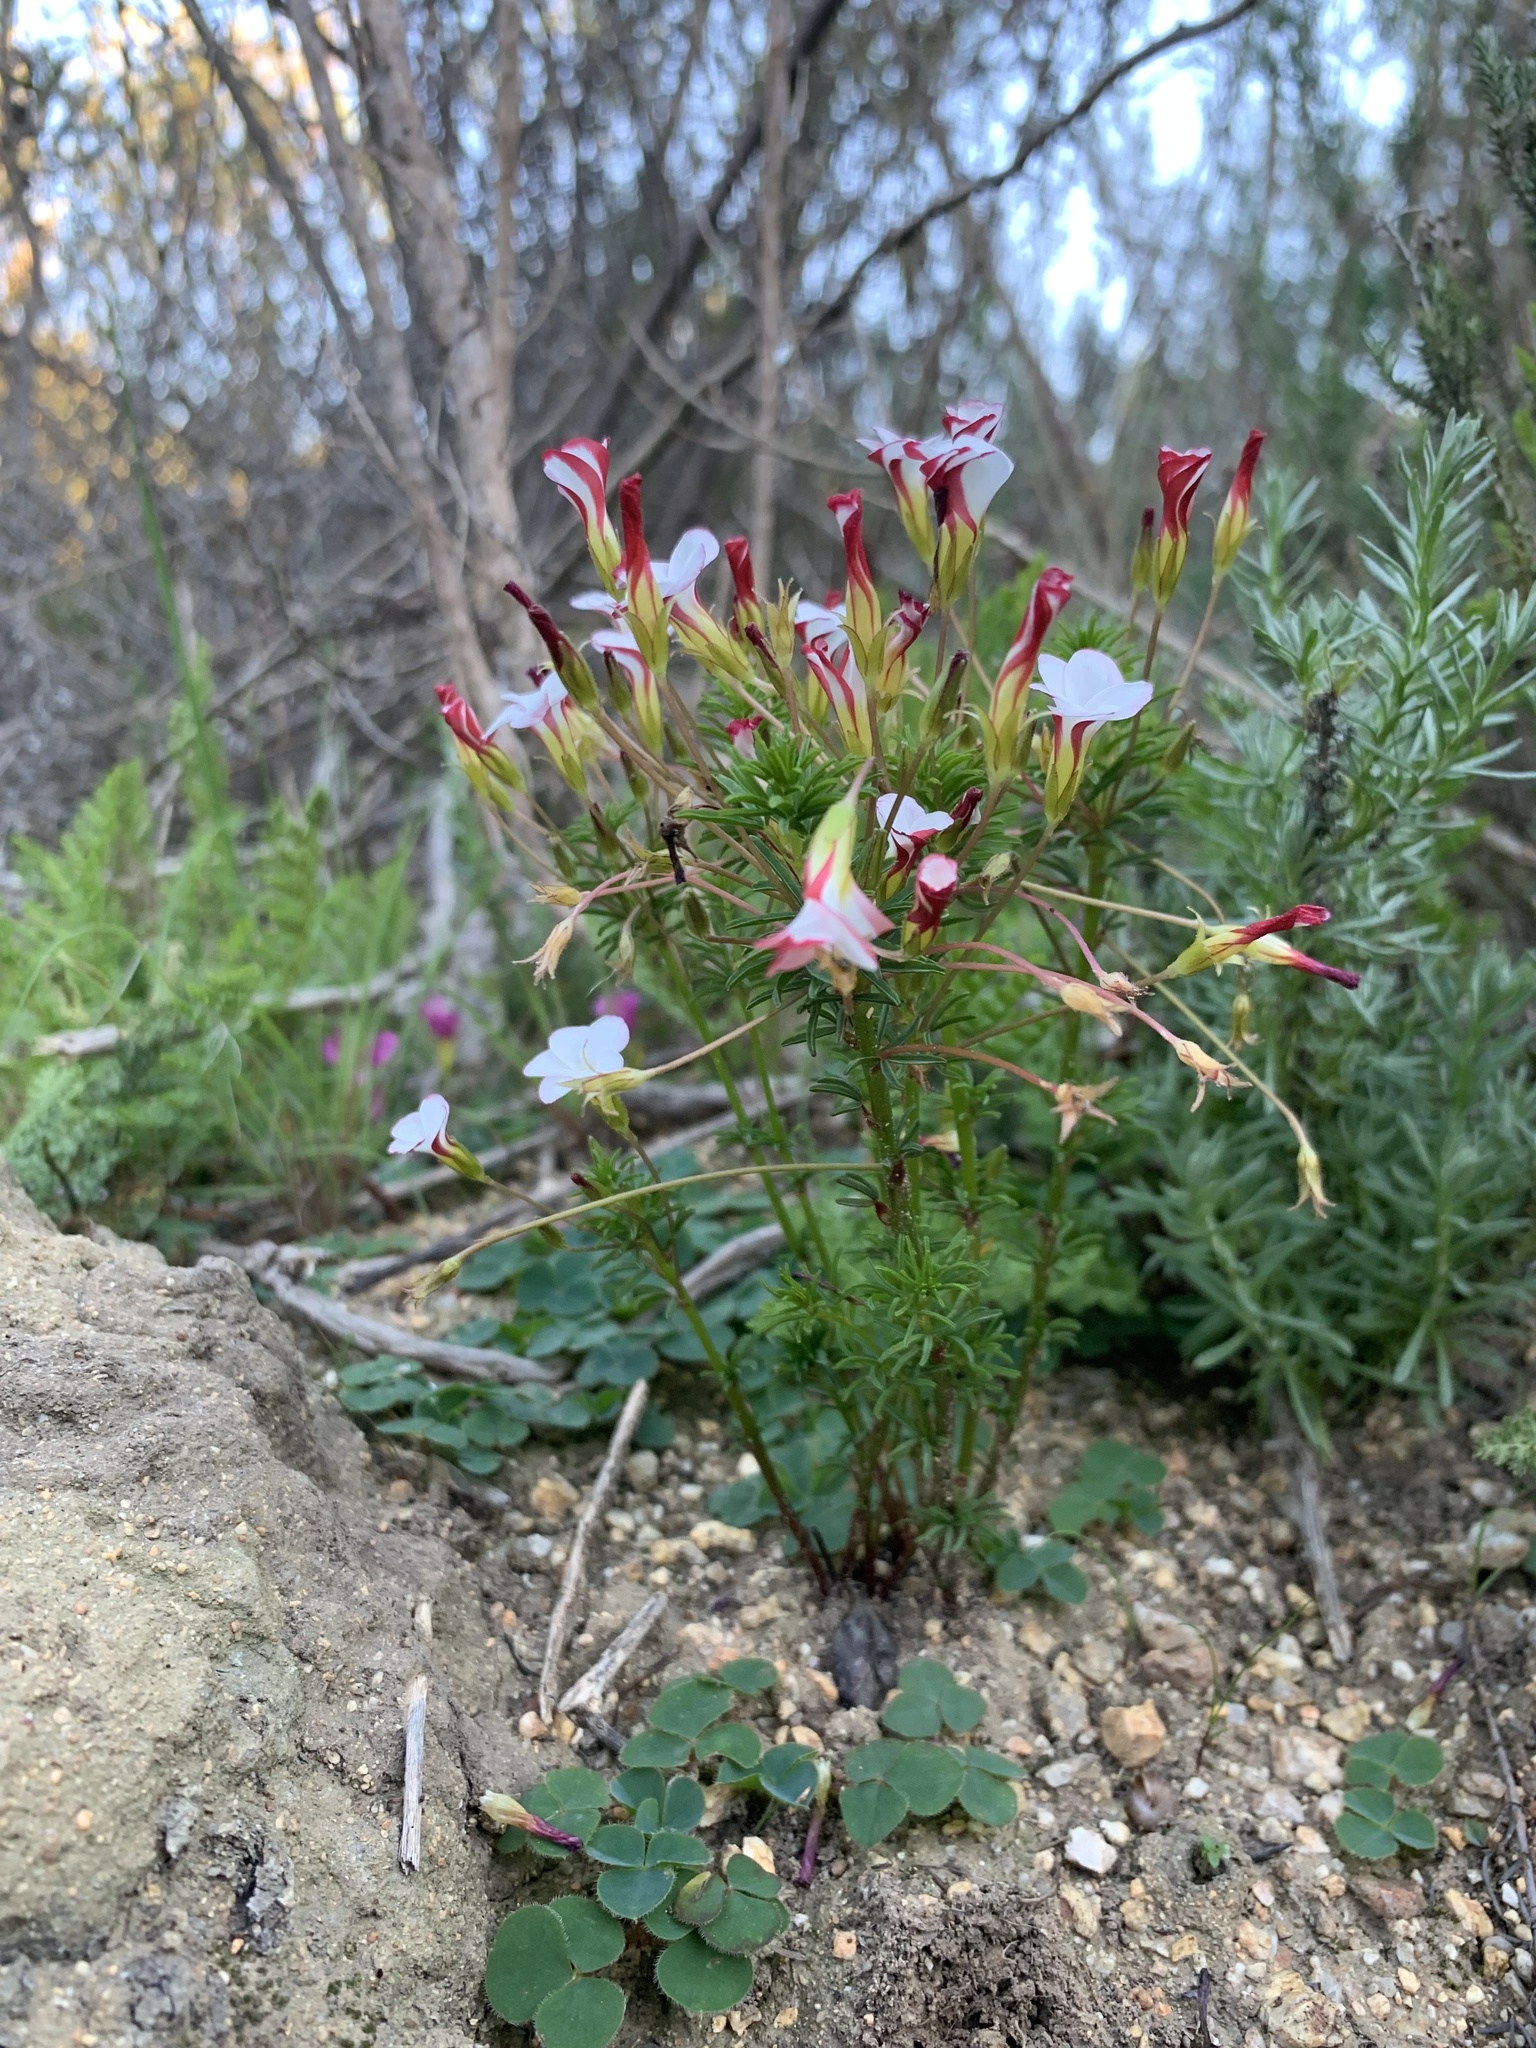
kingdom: Plantae
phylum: Tracheophyta
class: Magnoliopsida
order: Oxalidales
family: Oxalidaceae
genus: Oxalis
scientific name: Oxalis tenuifolia
